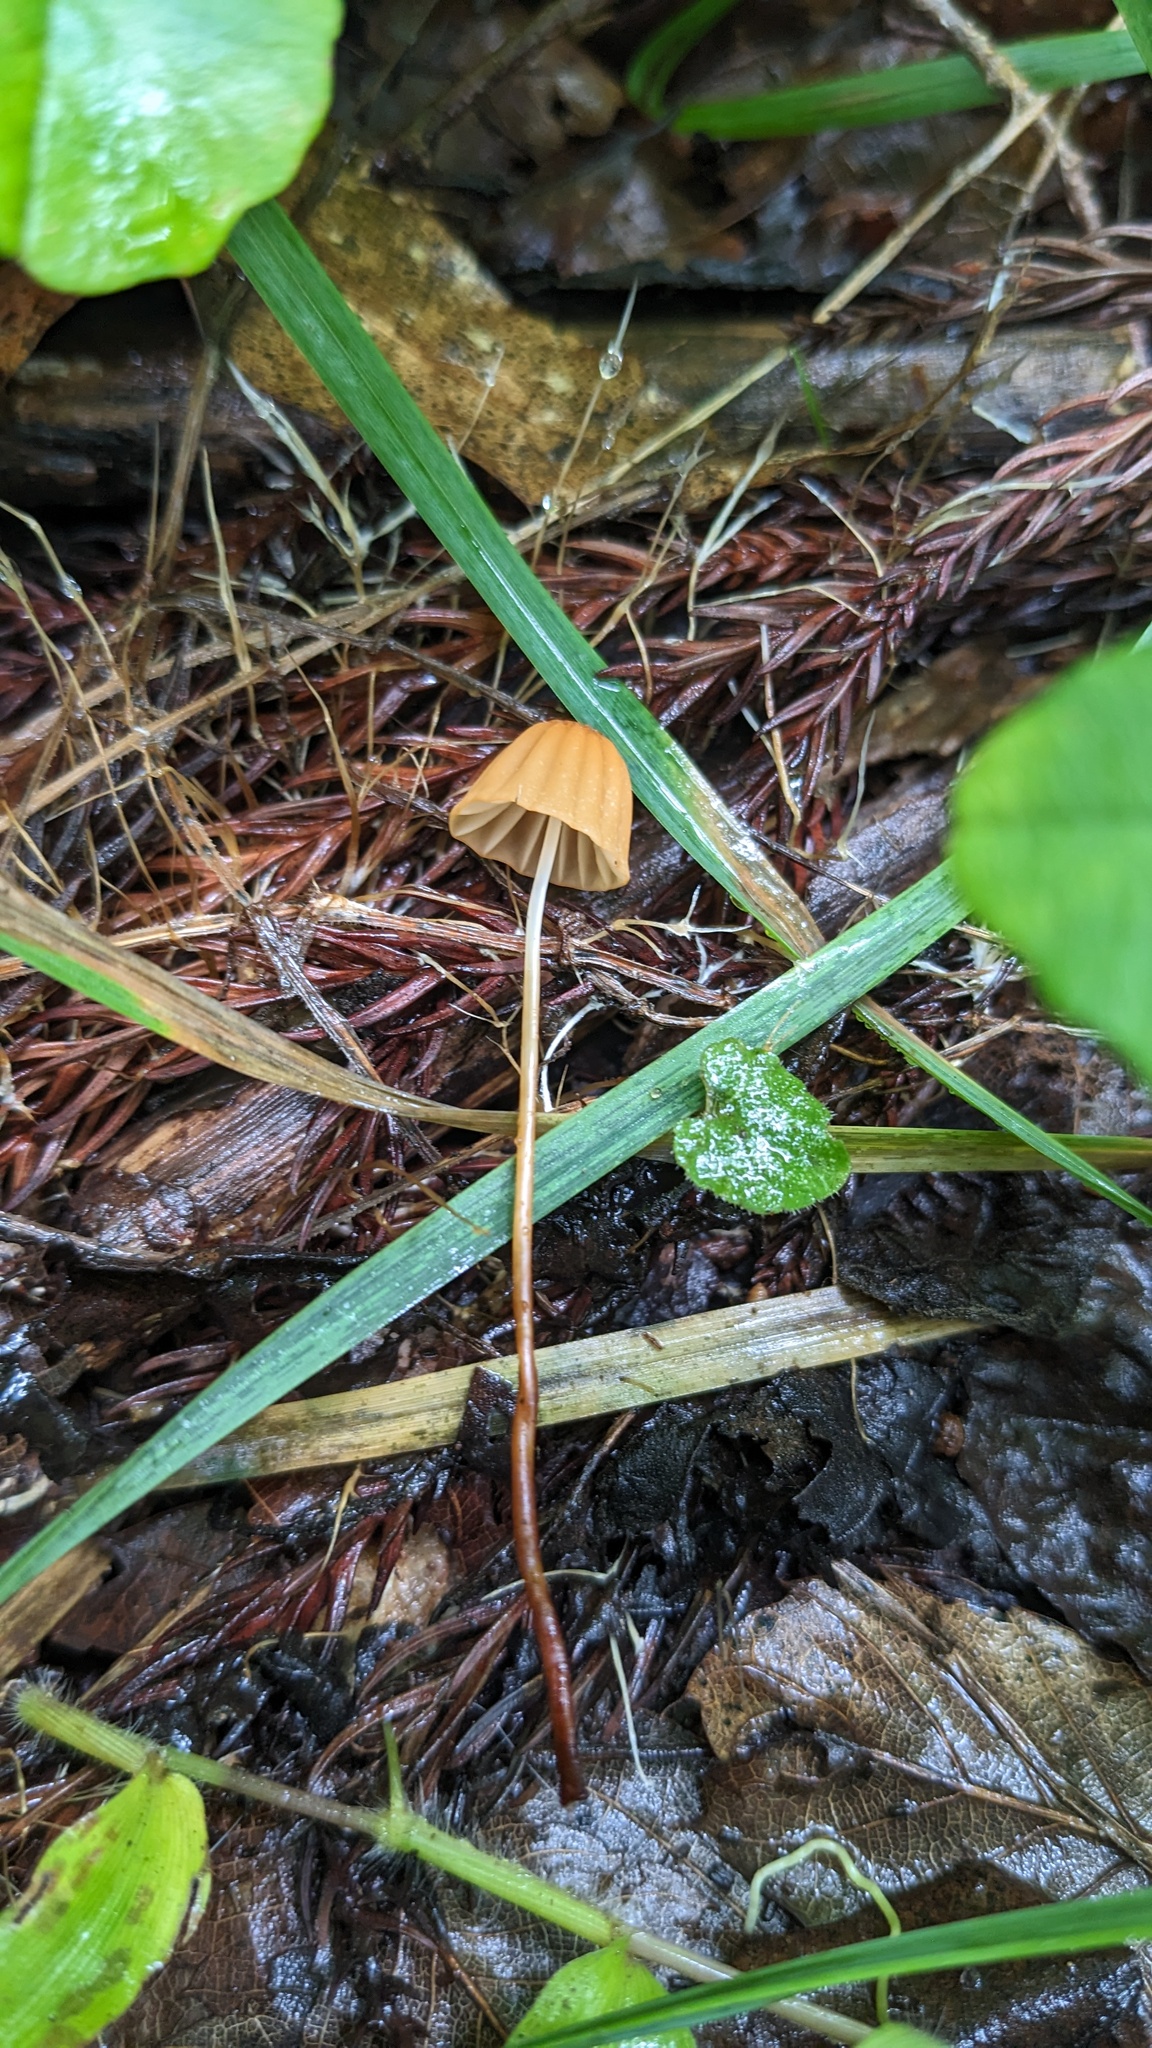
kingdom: Fungi
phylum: Basidiomycota
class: Agaricomycetes
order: Agaricales
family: Marasmiaceae
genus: Marasmius
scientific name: Marasmius siccus
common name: Orange pinwheel
